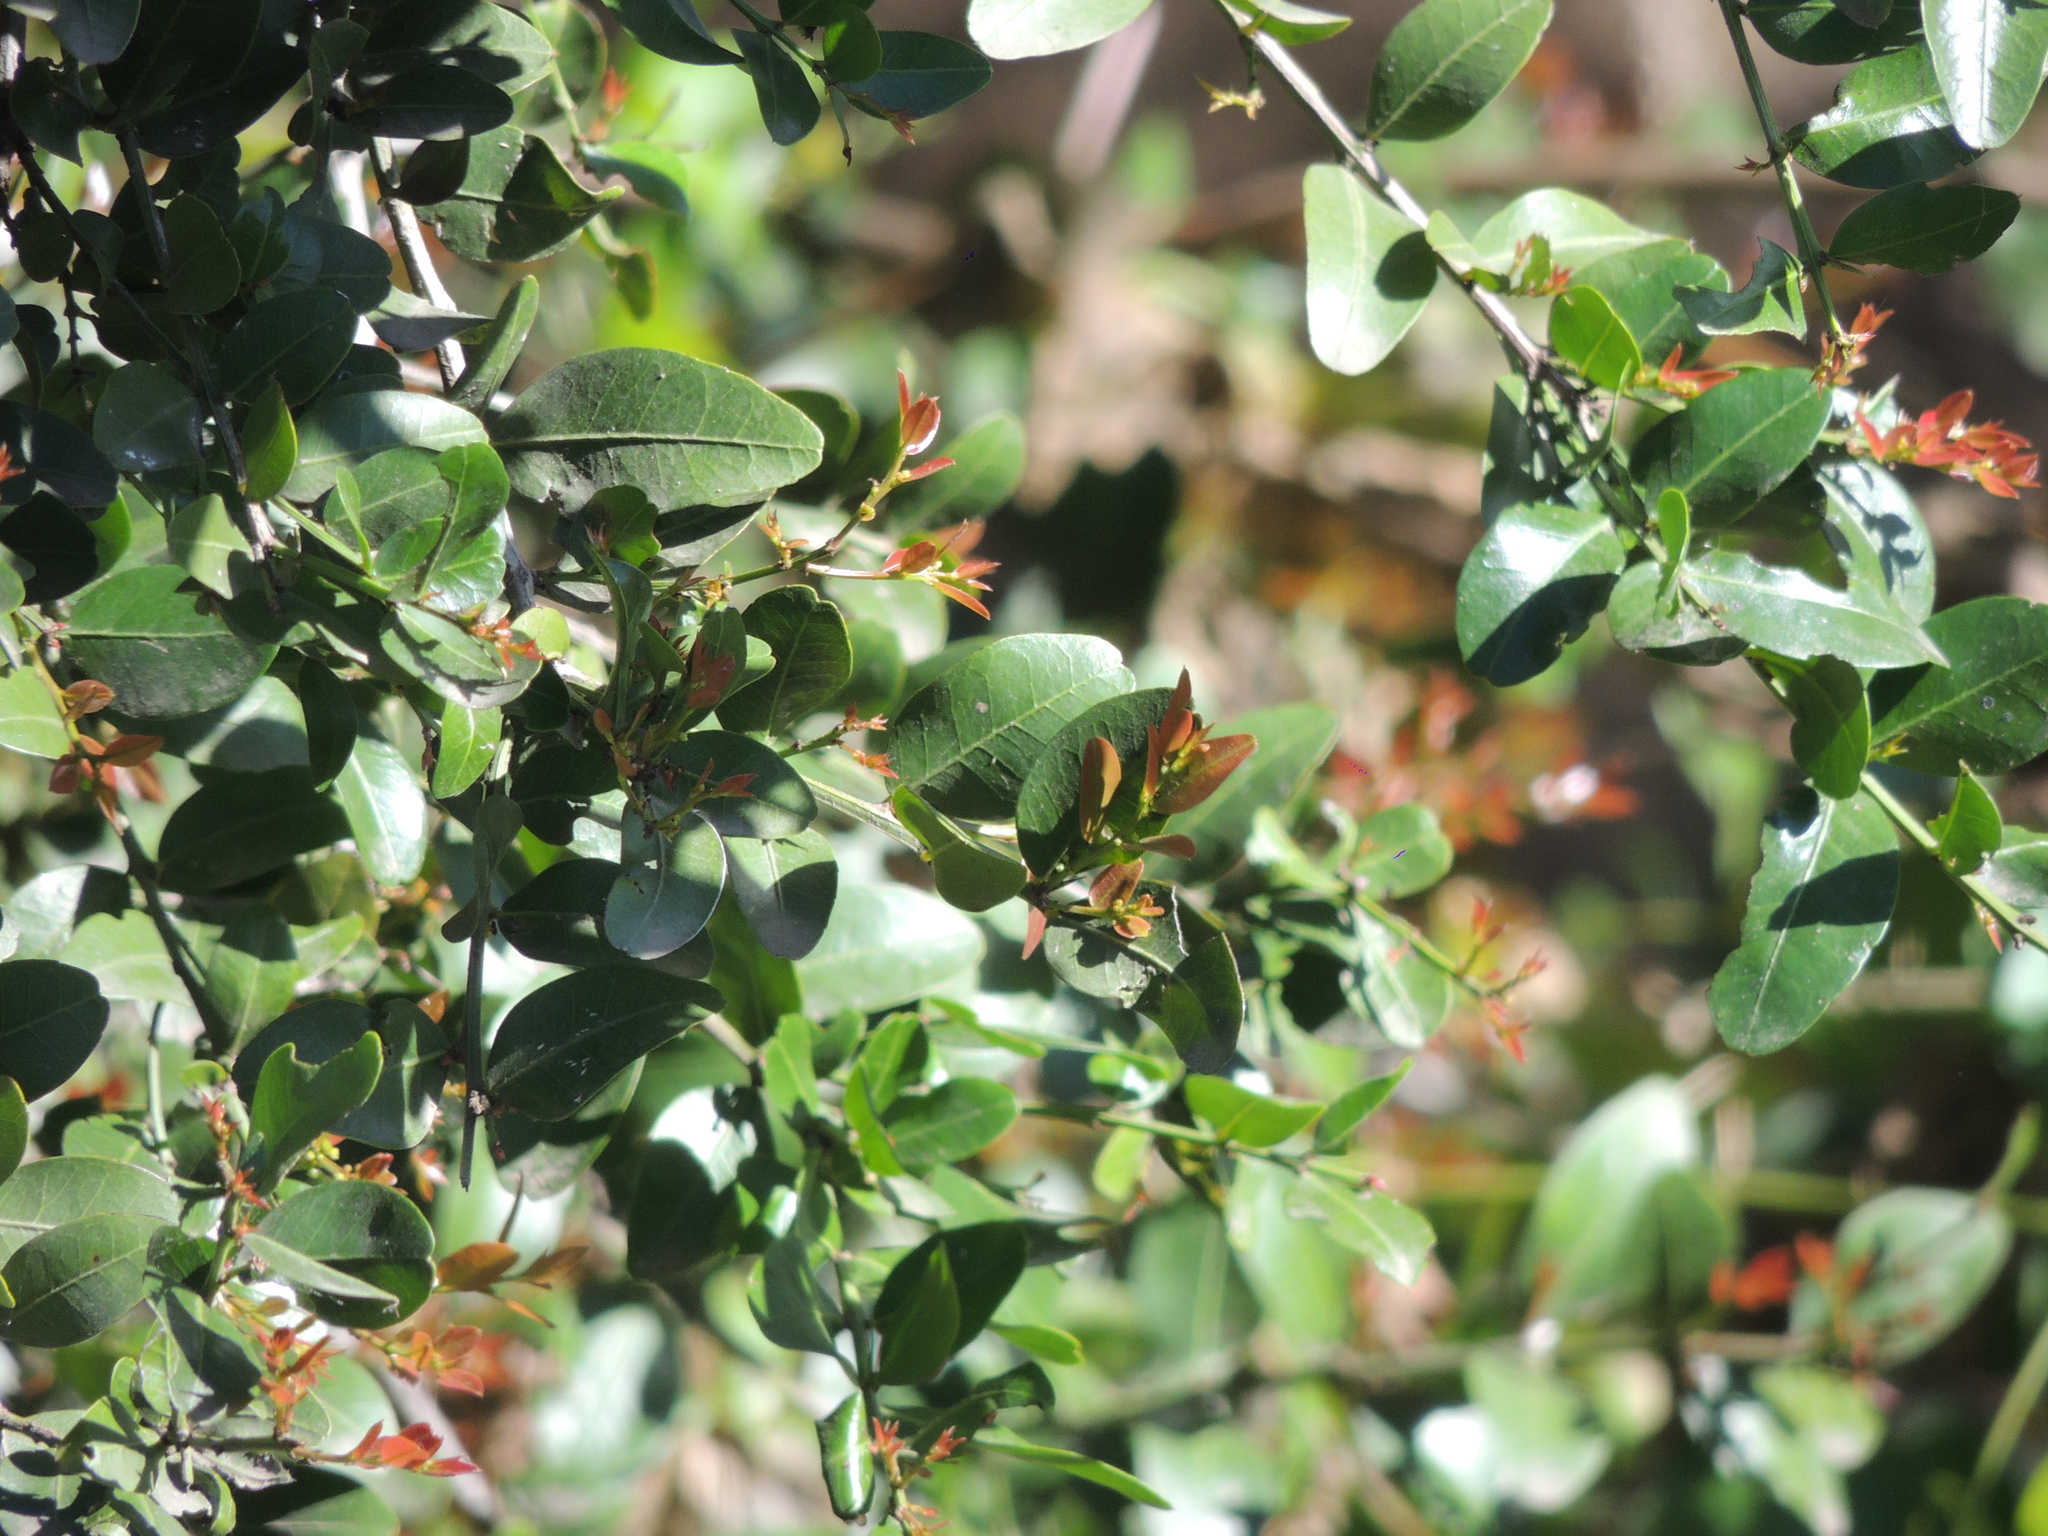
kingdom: Plantae
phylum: Tracheophyta
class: Magnoliopsida
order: Rosales
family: Rhamnaceae
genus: Scutia
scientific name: Scutia buxifolia
